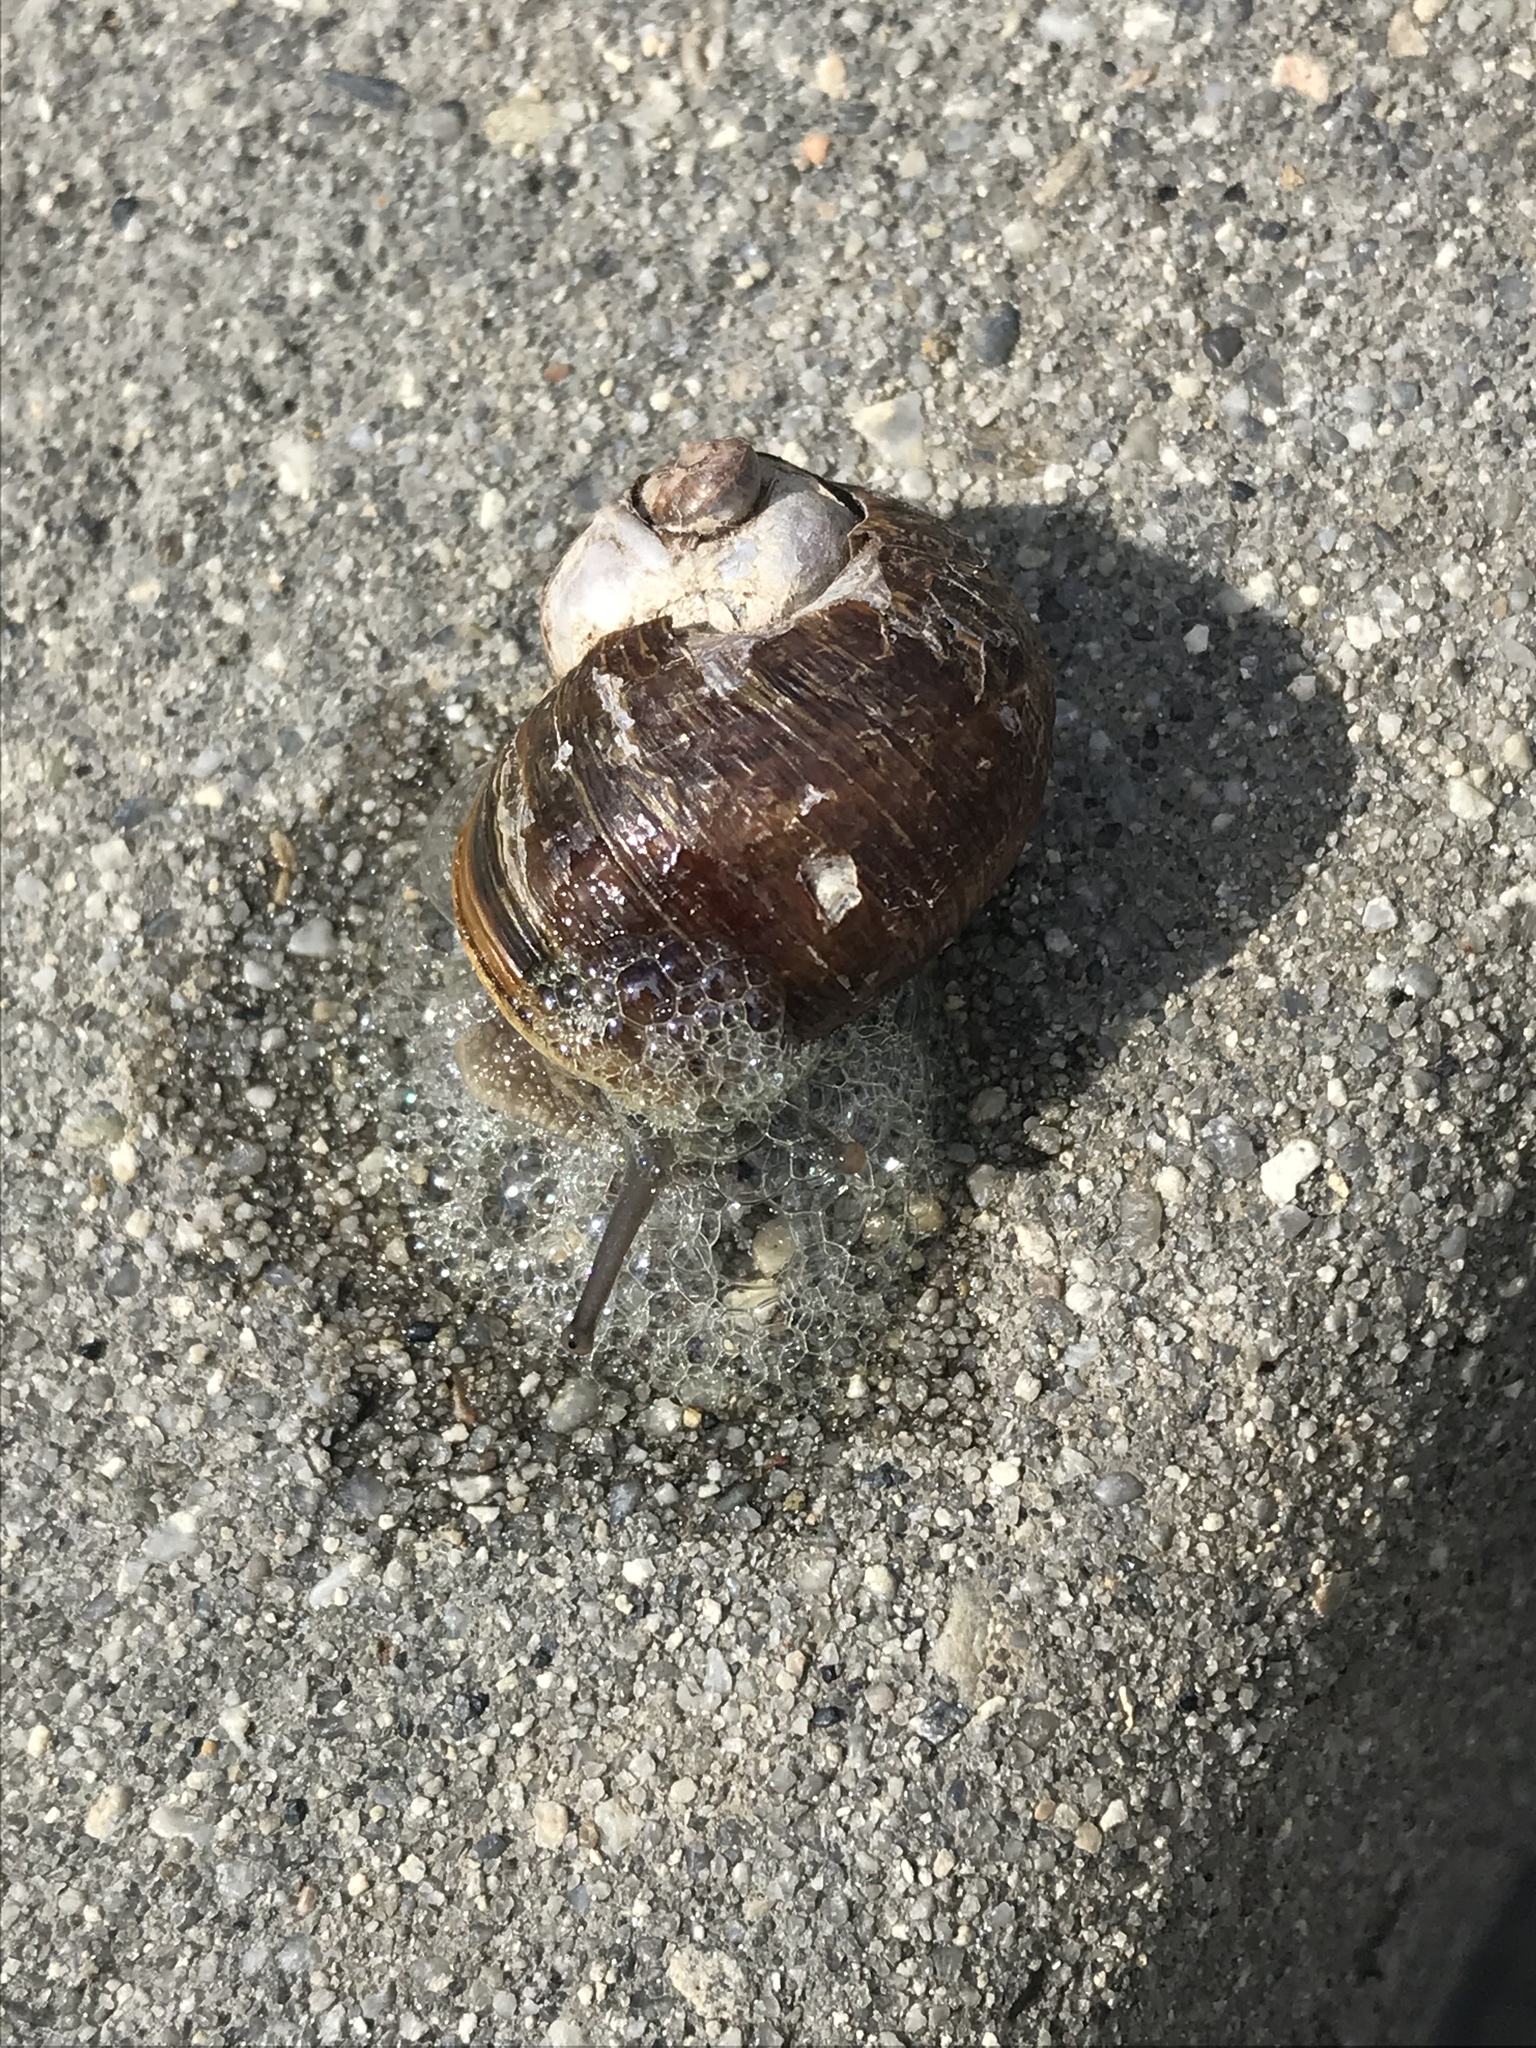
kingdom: Animalia
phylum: Mollusca
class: Gastropoda
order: Stylommatophora
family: Helicidae
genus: Cornu
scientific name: Cornu aspersum
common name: Brown garden snail
